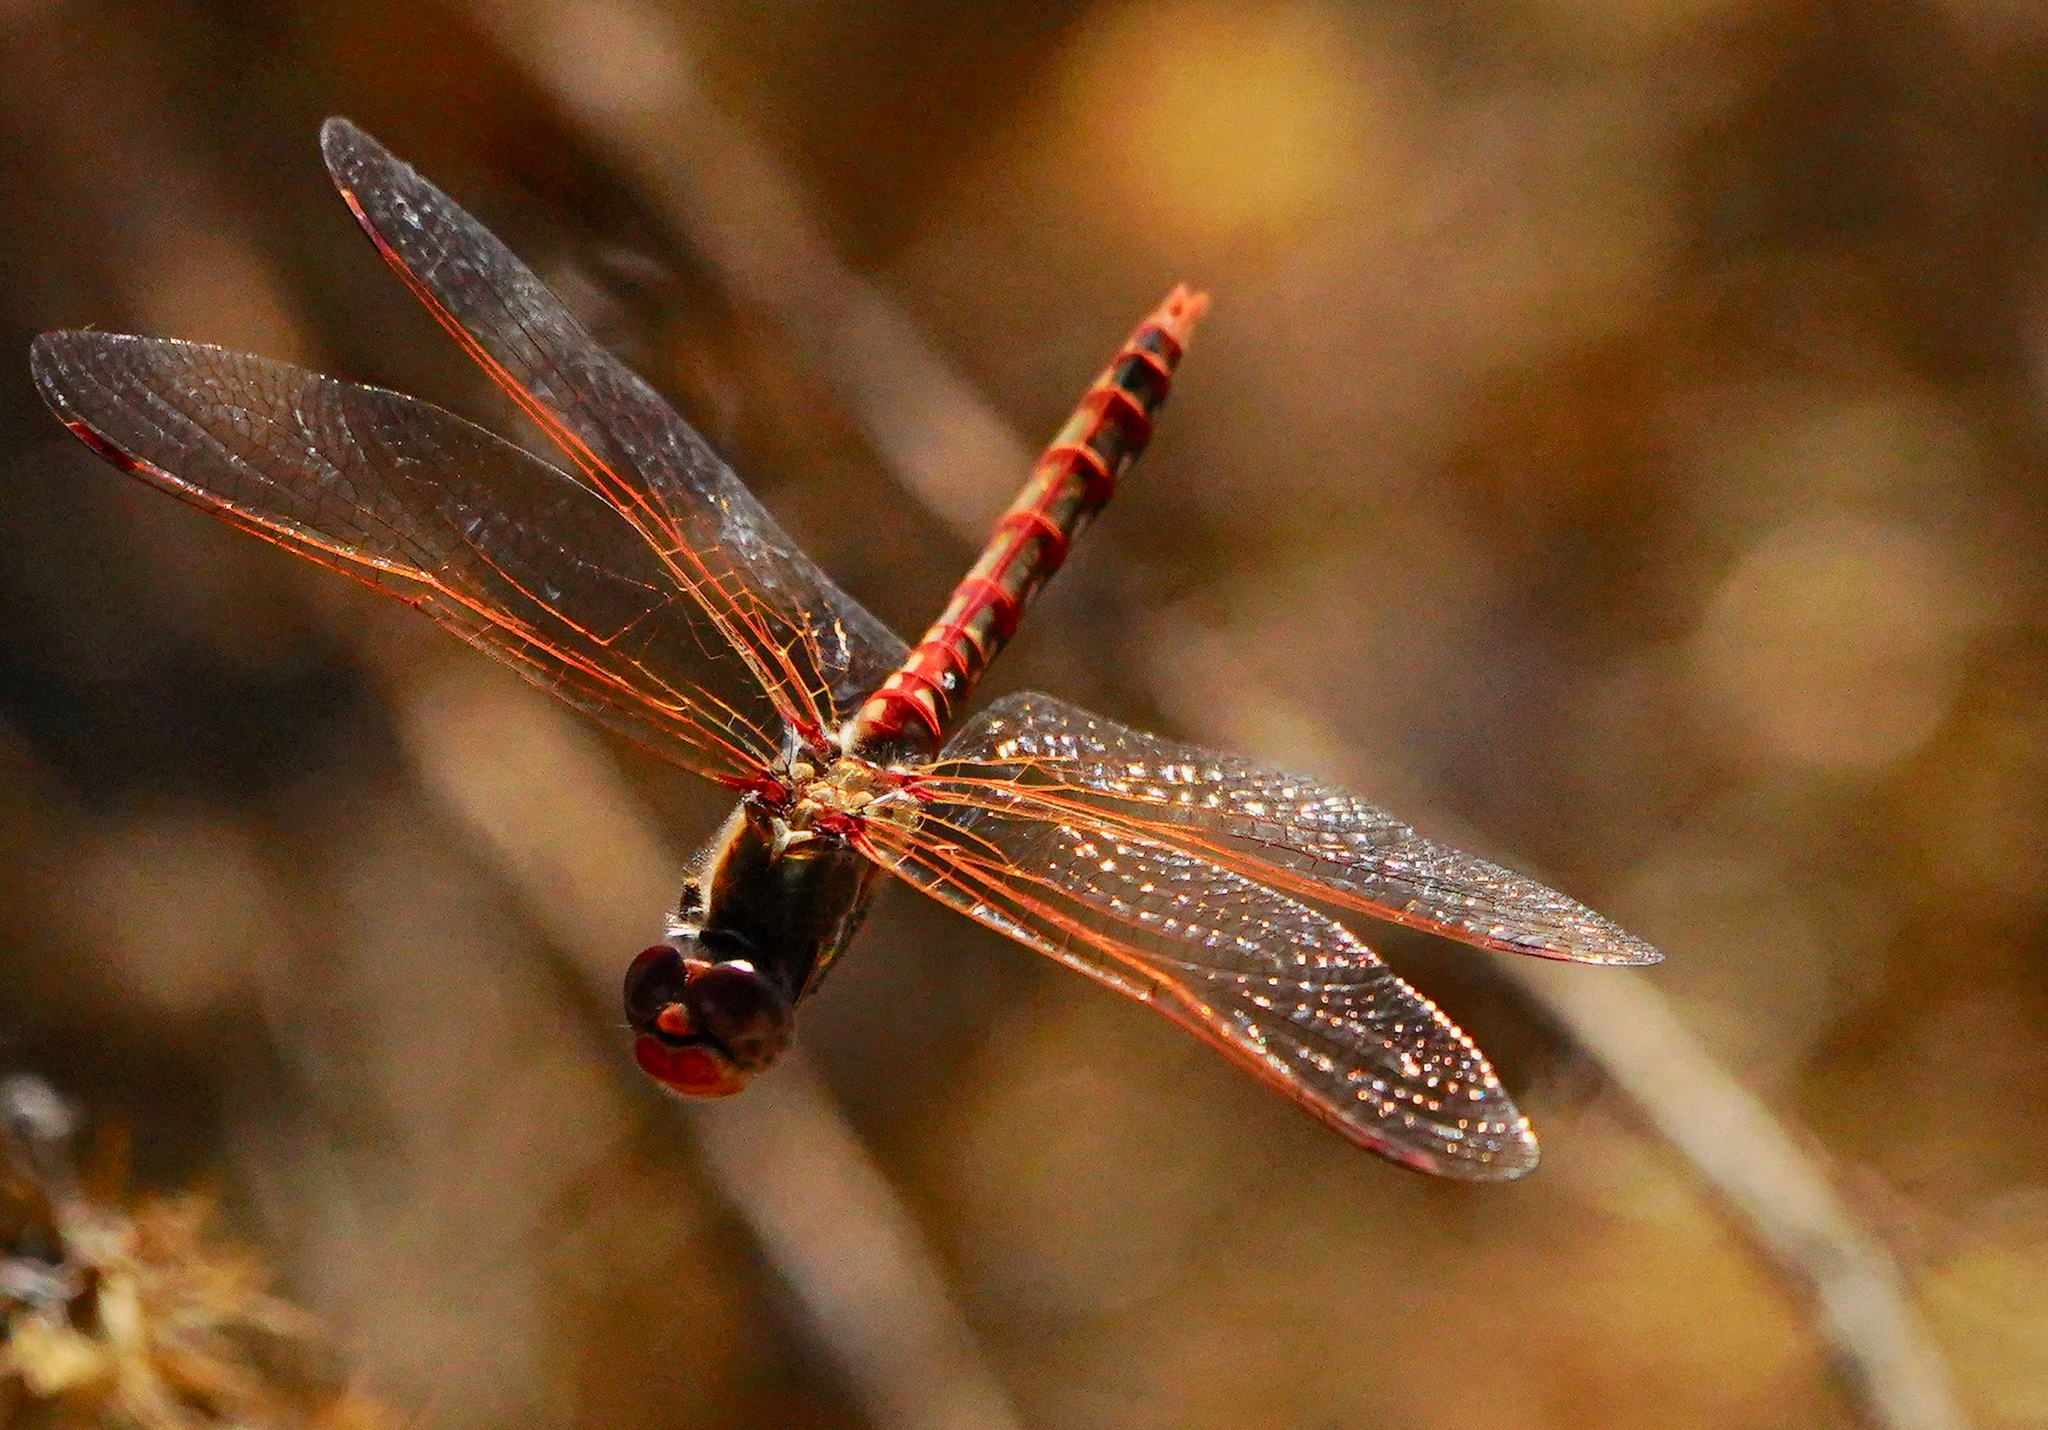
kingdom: Animalia
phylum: Arthropoda
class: Insecta
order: Odonata
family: Libellulidae
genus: Sympetrum
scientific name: Sympetrum corruptum
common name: Variegated meadowhawk
